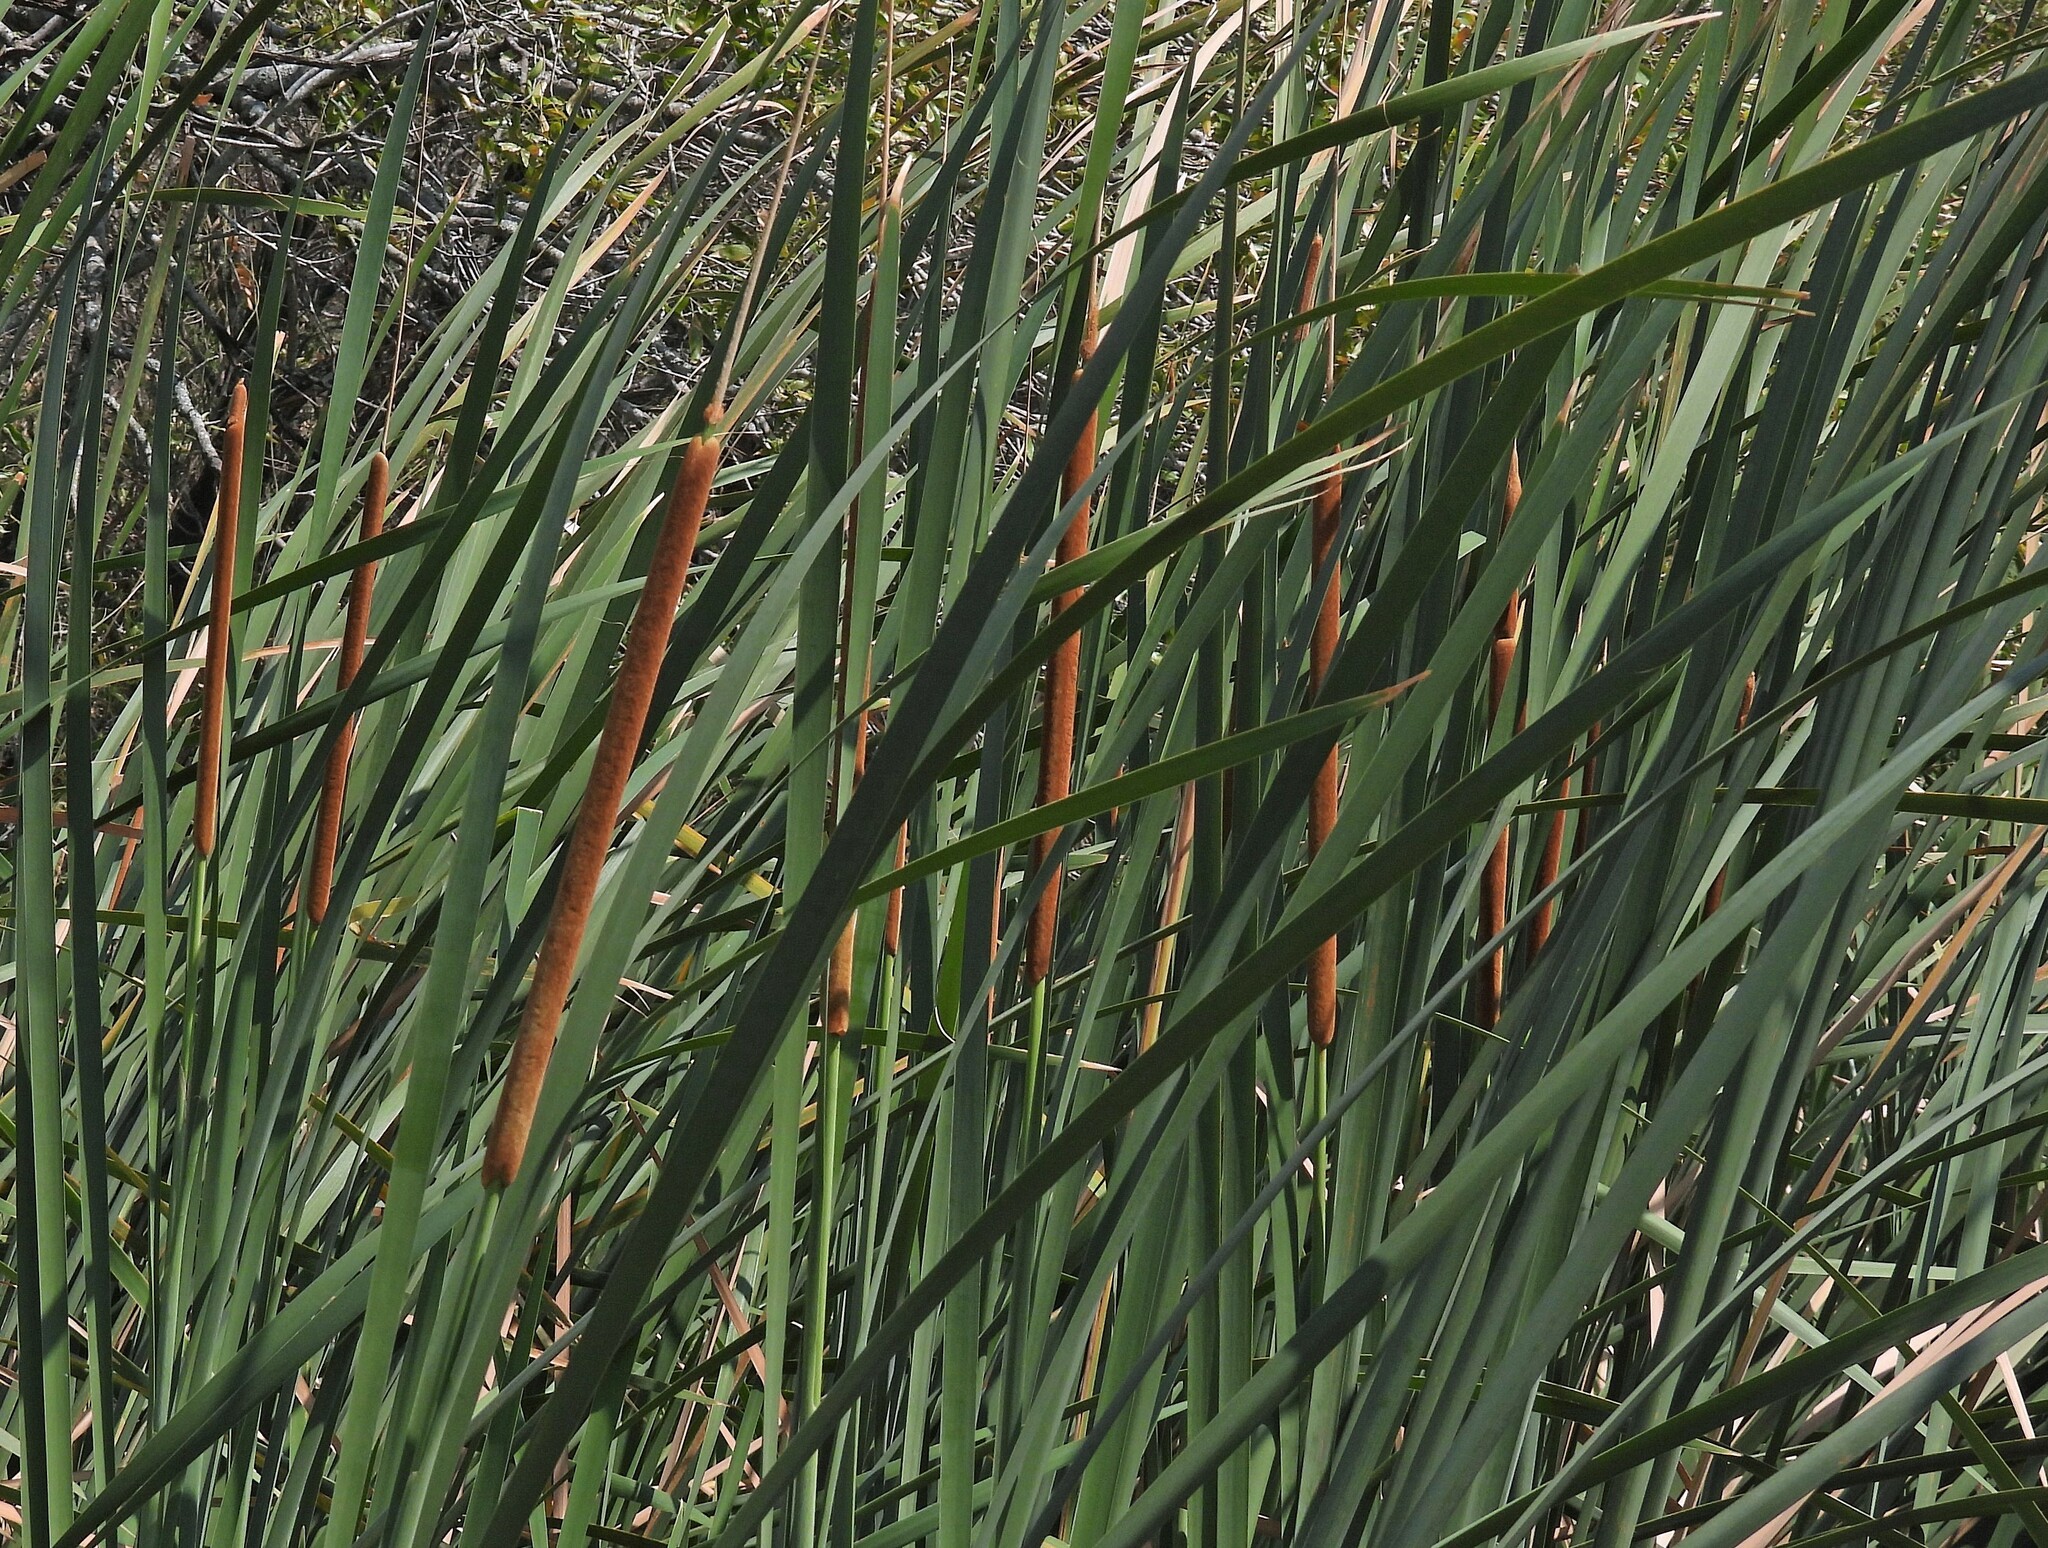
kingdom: Plantae
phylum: Tracheophyta
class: Liliopsida
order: Poales
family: Typhaceae
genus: Typha
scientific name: Typha domingensis
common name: Southern cattail
